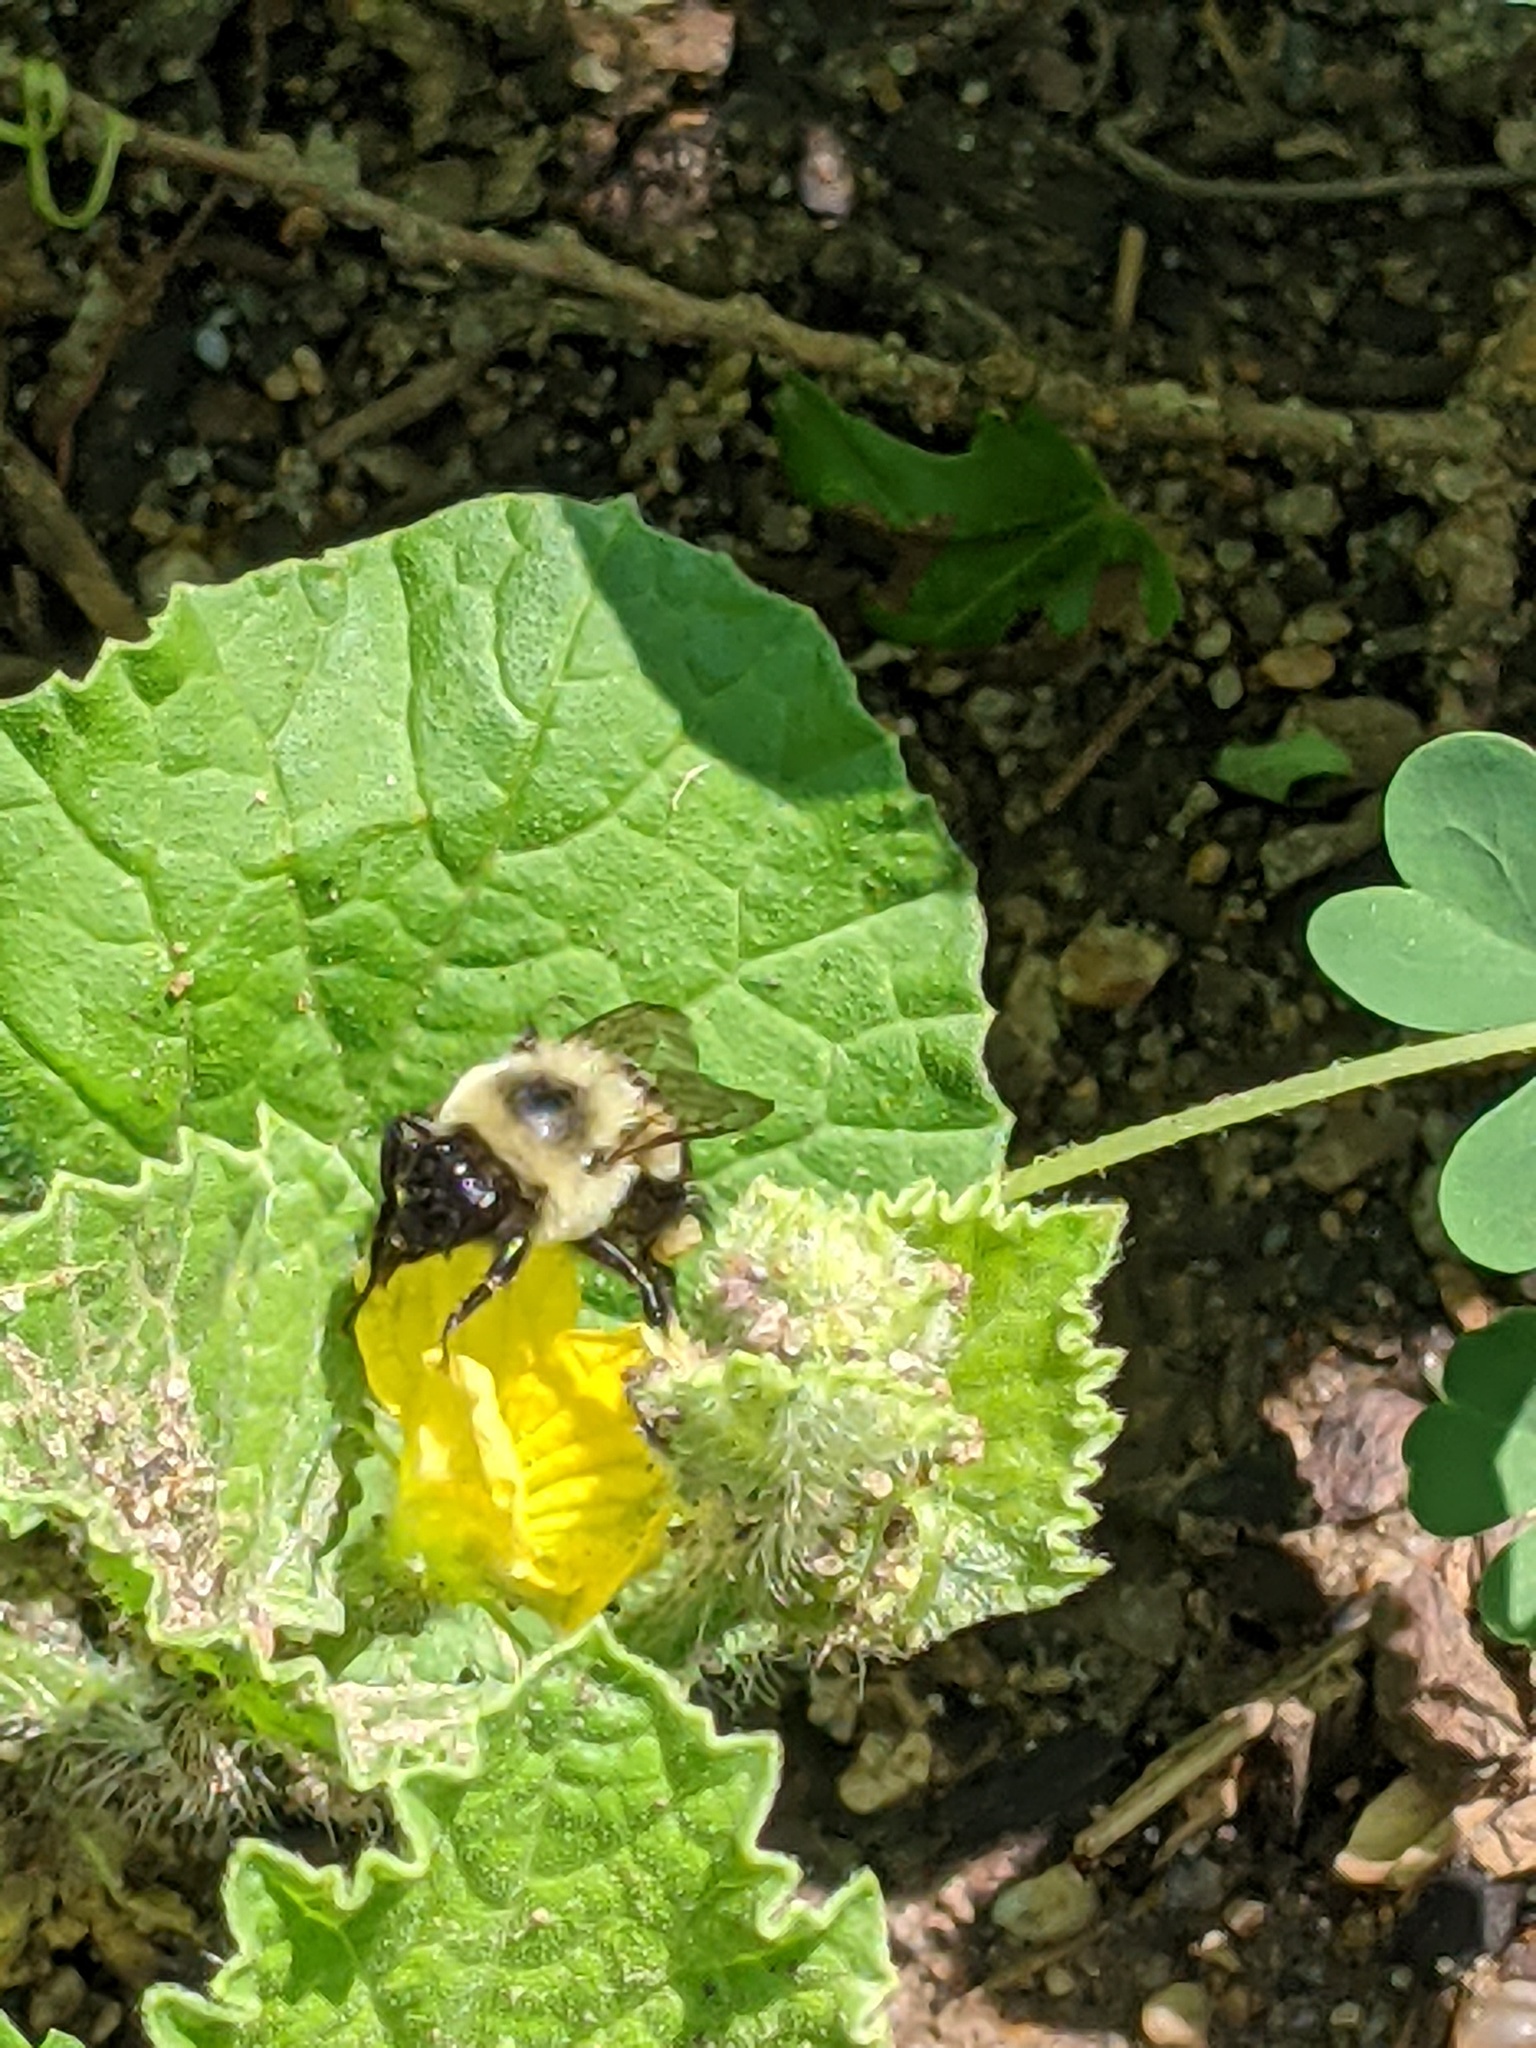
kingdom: Animalia
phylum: Arthropoda
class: Insecta
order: Hymenoptera
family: Apidae
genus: Bombus
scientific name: Bombus impatiens
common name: Common eastern bumble bee
